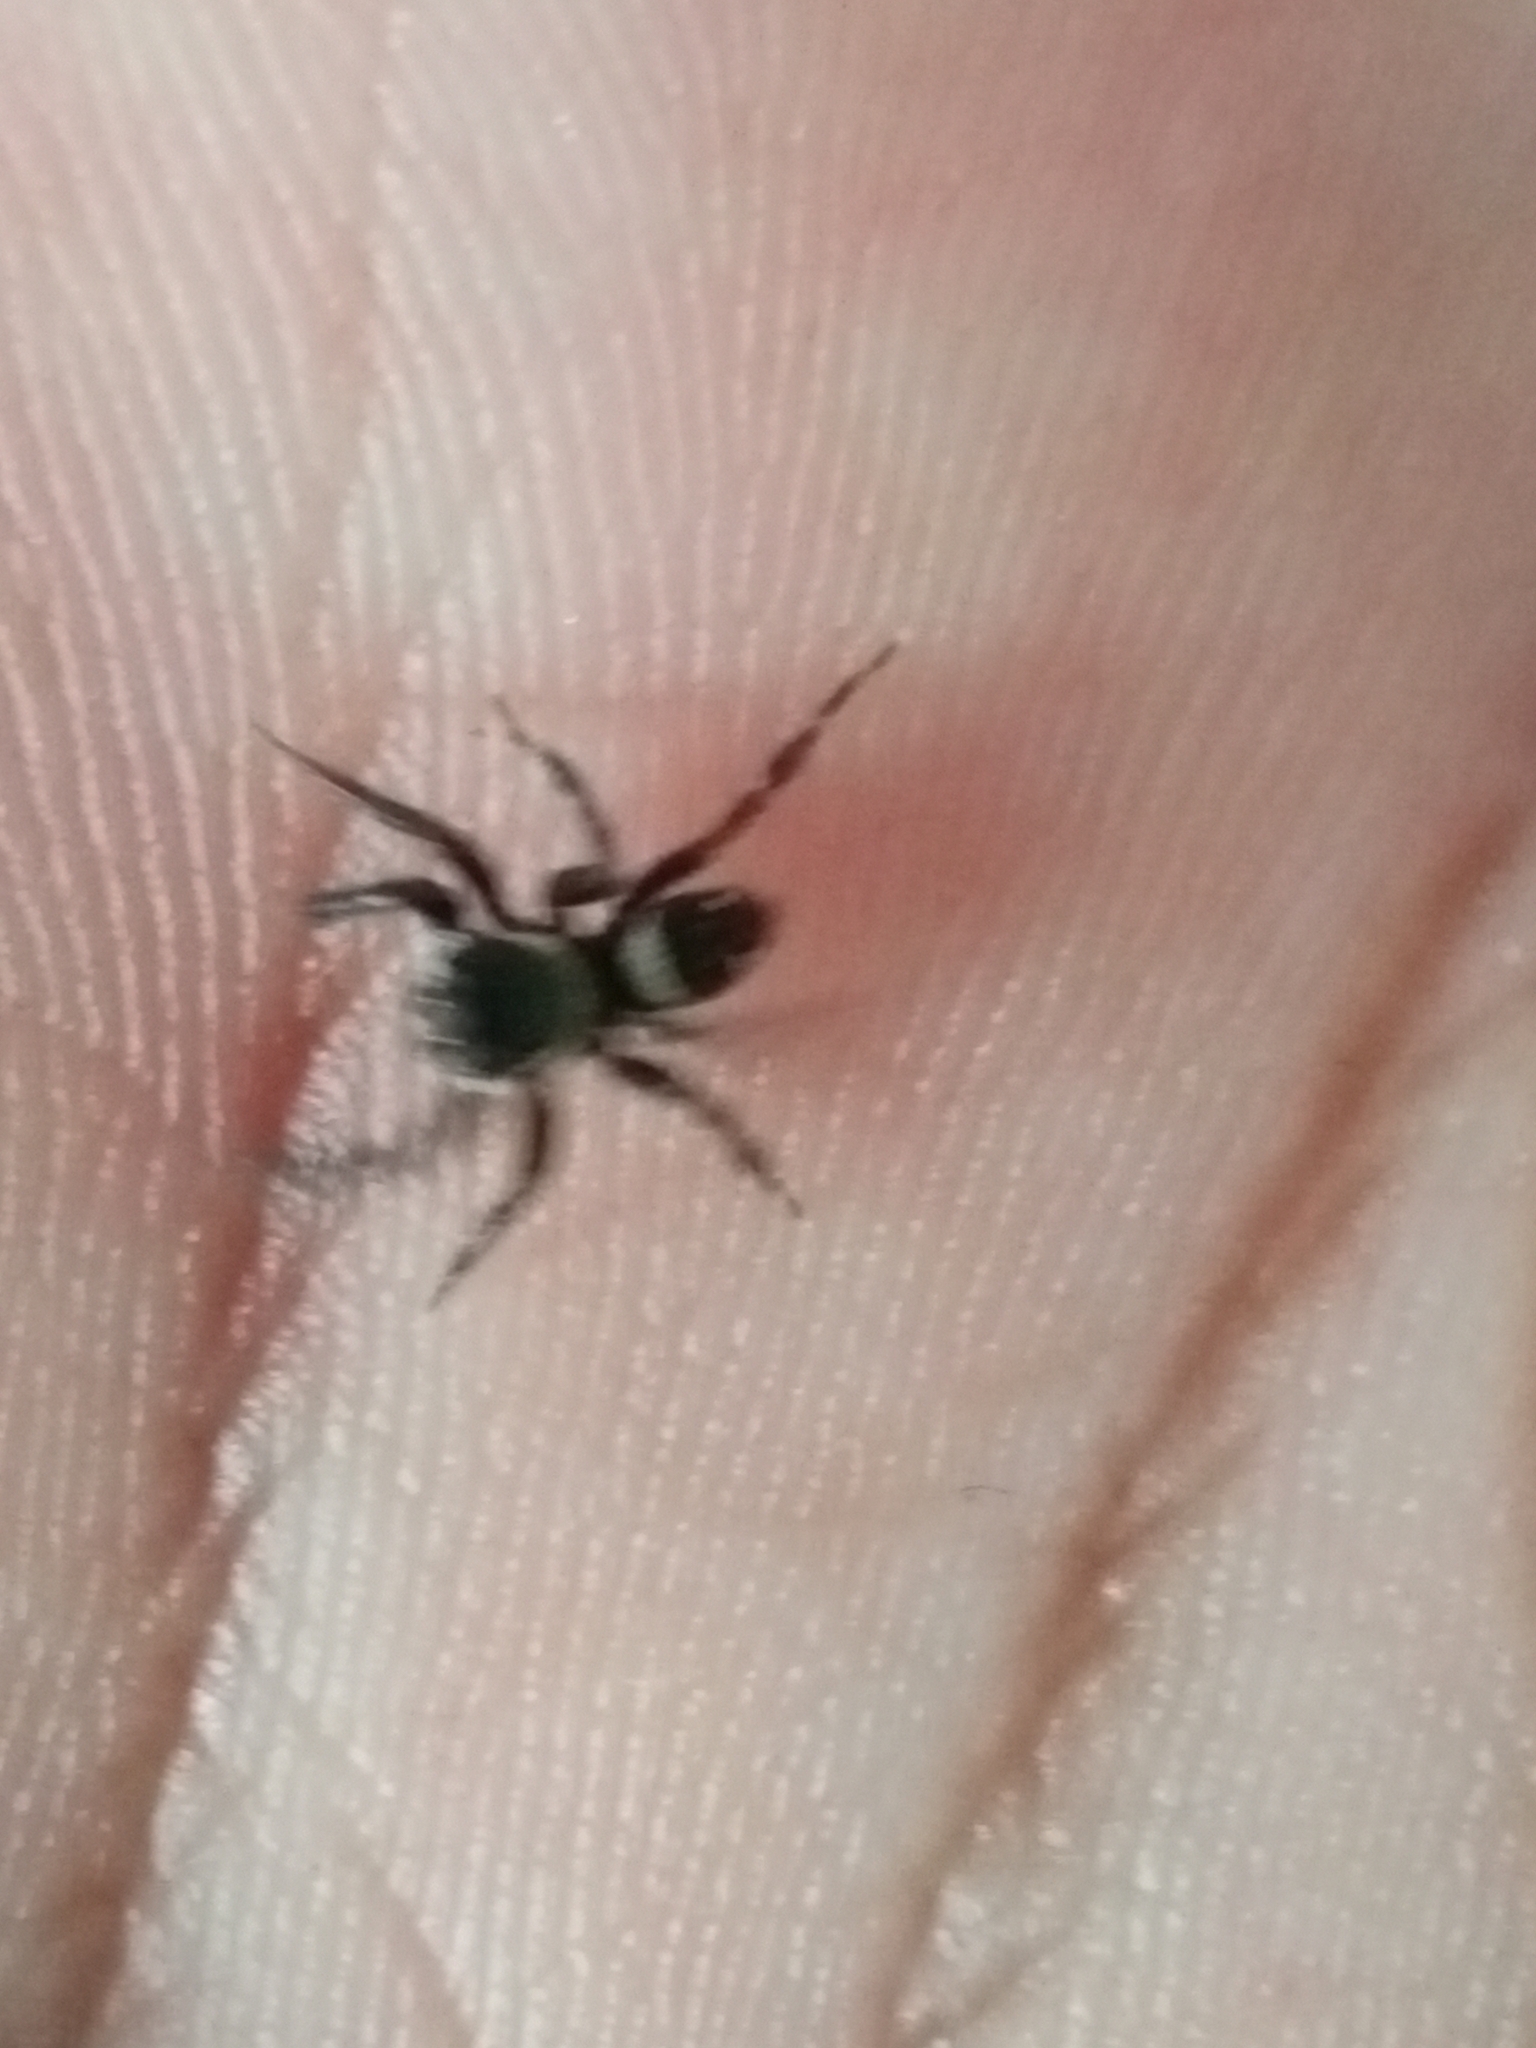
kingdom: Animalia
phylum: Arthropoda
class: Arachnida
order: Araneae
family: Salticidae
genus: Hasarius
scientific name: Hasarius adansoni
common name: Jumping spider
